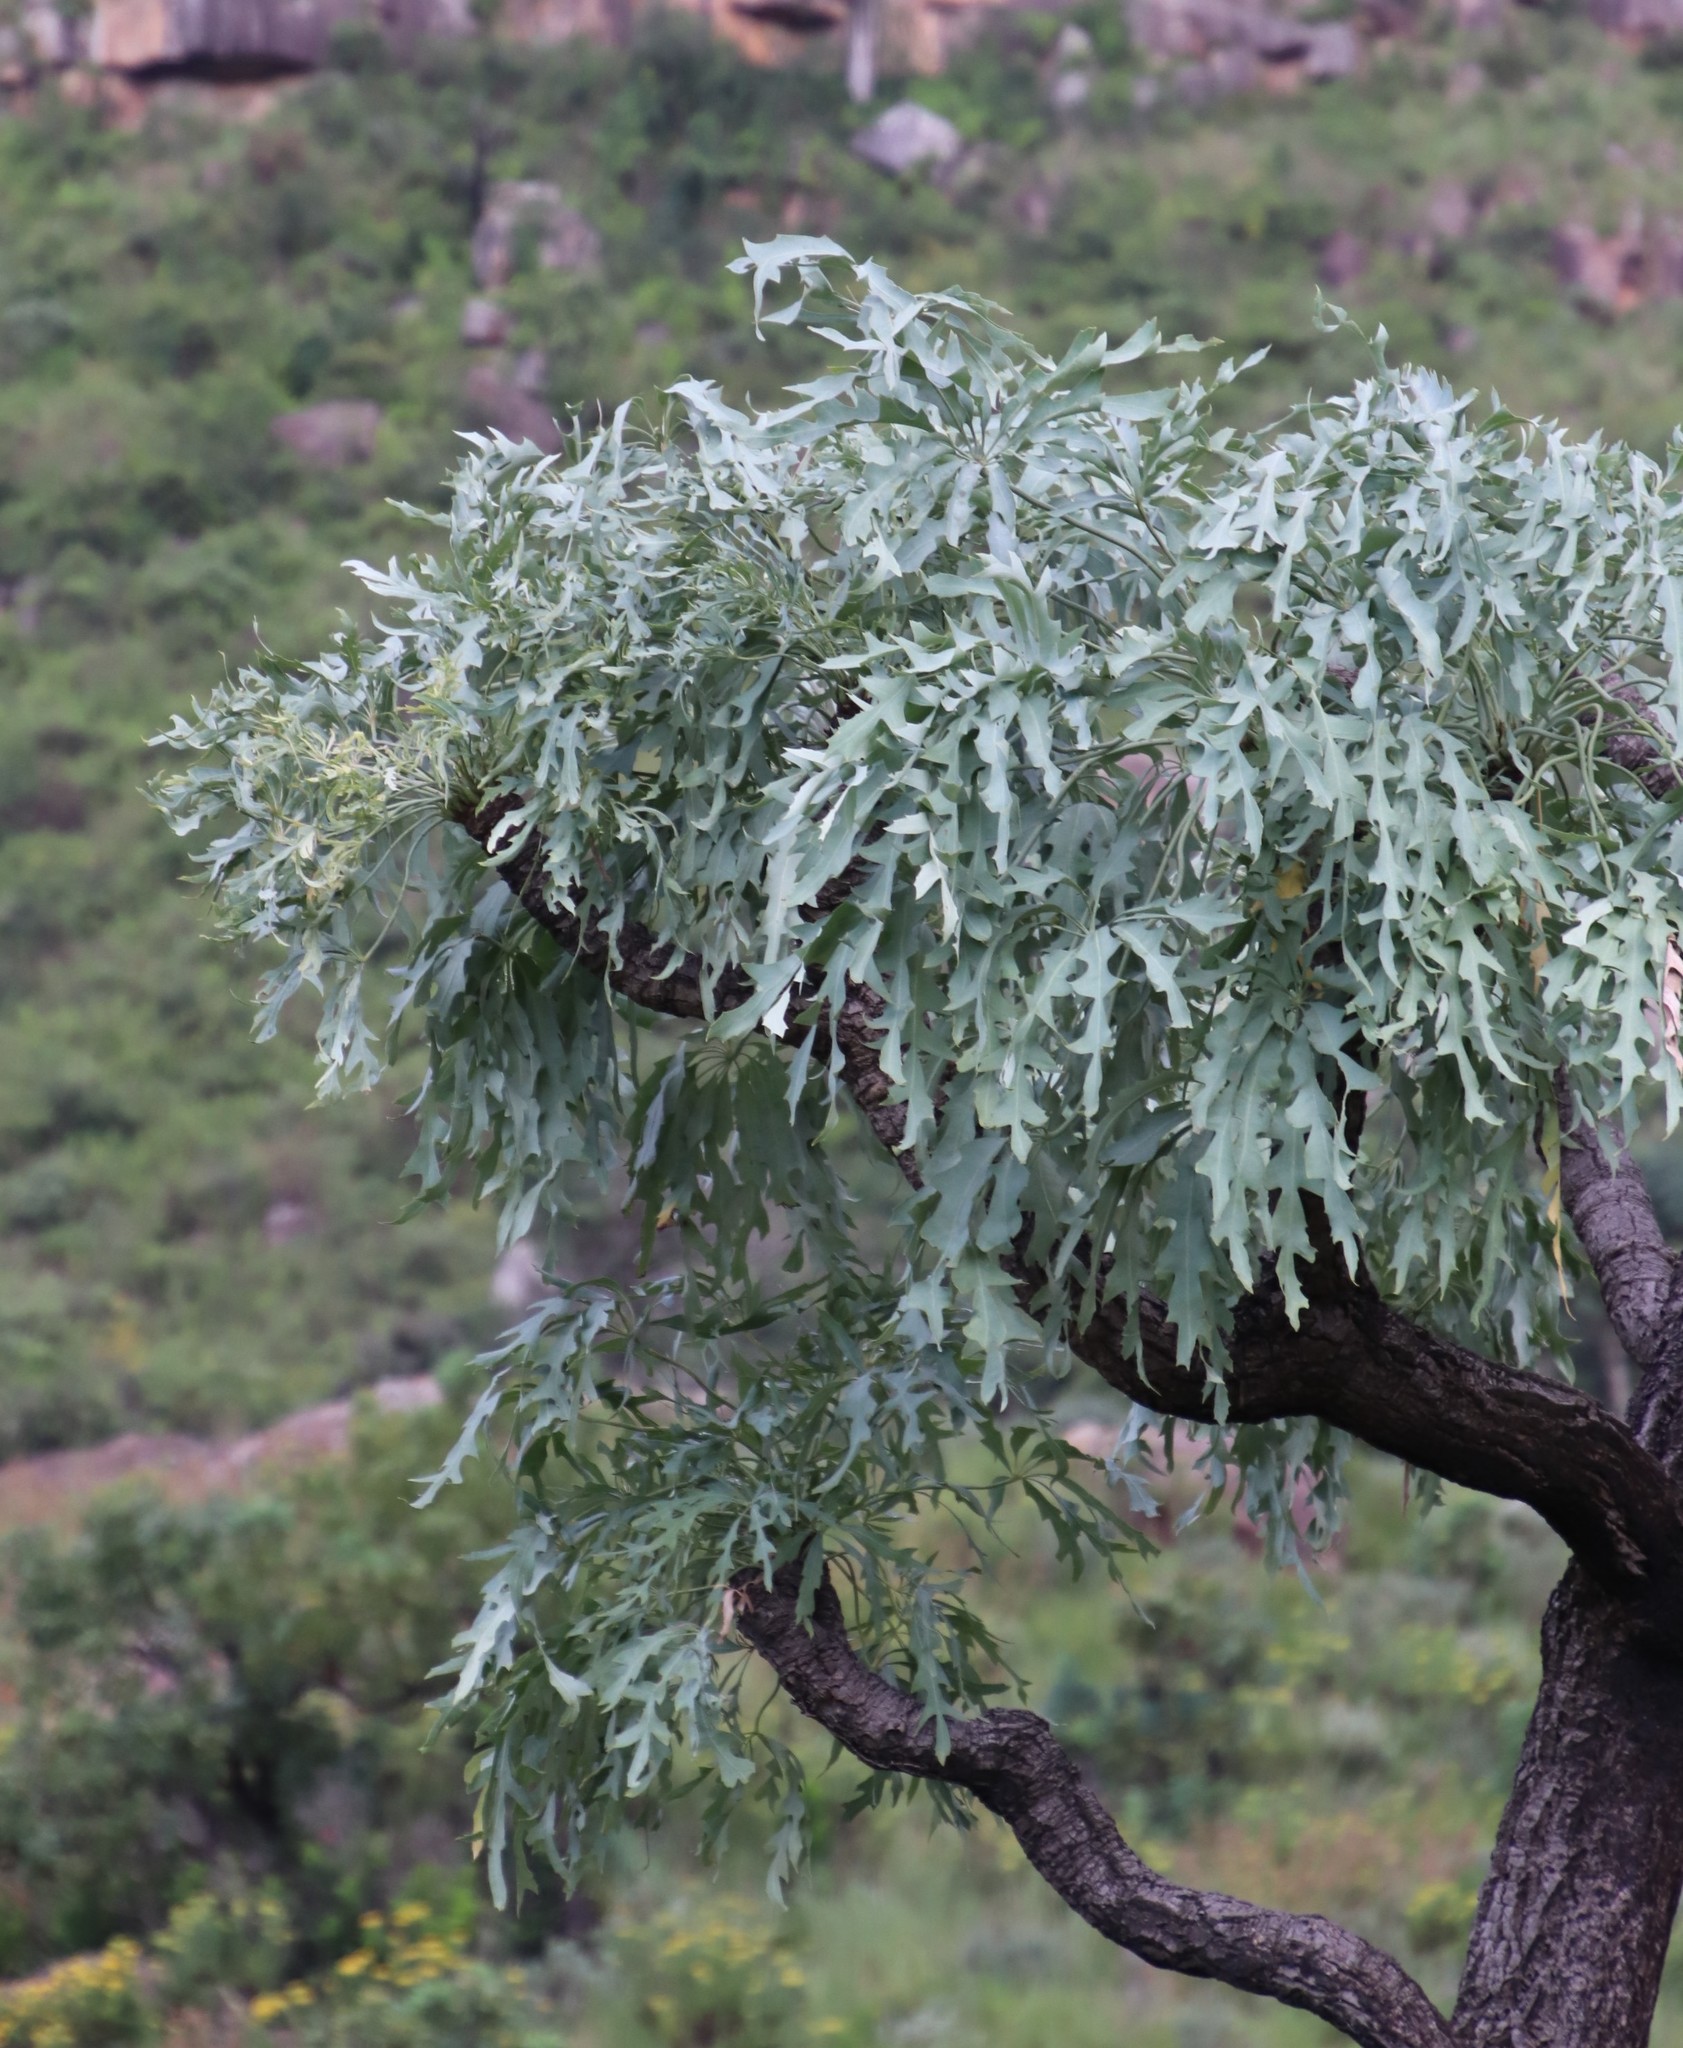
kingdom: Plantae
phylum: Tracheophyta
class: Magnoliopsida
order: Apiales
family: Araliaceae
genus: Cussonia
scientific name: Cussonia paniculata
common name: Cabbagetree
